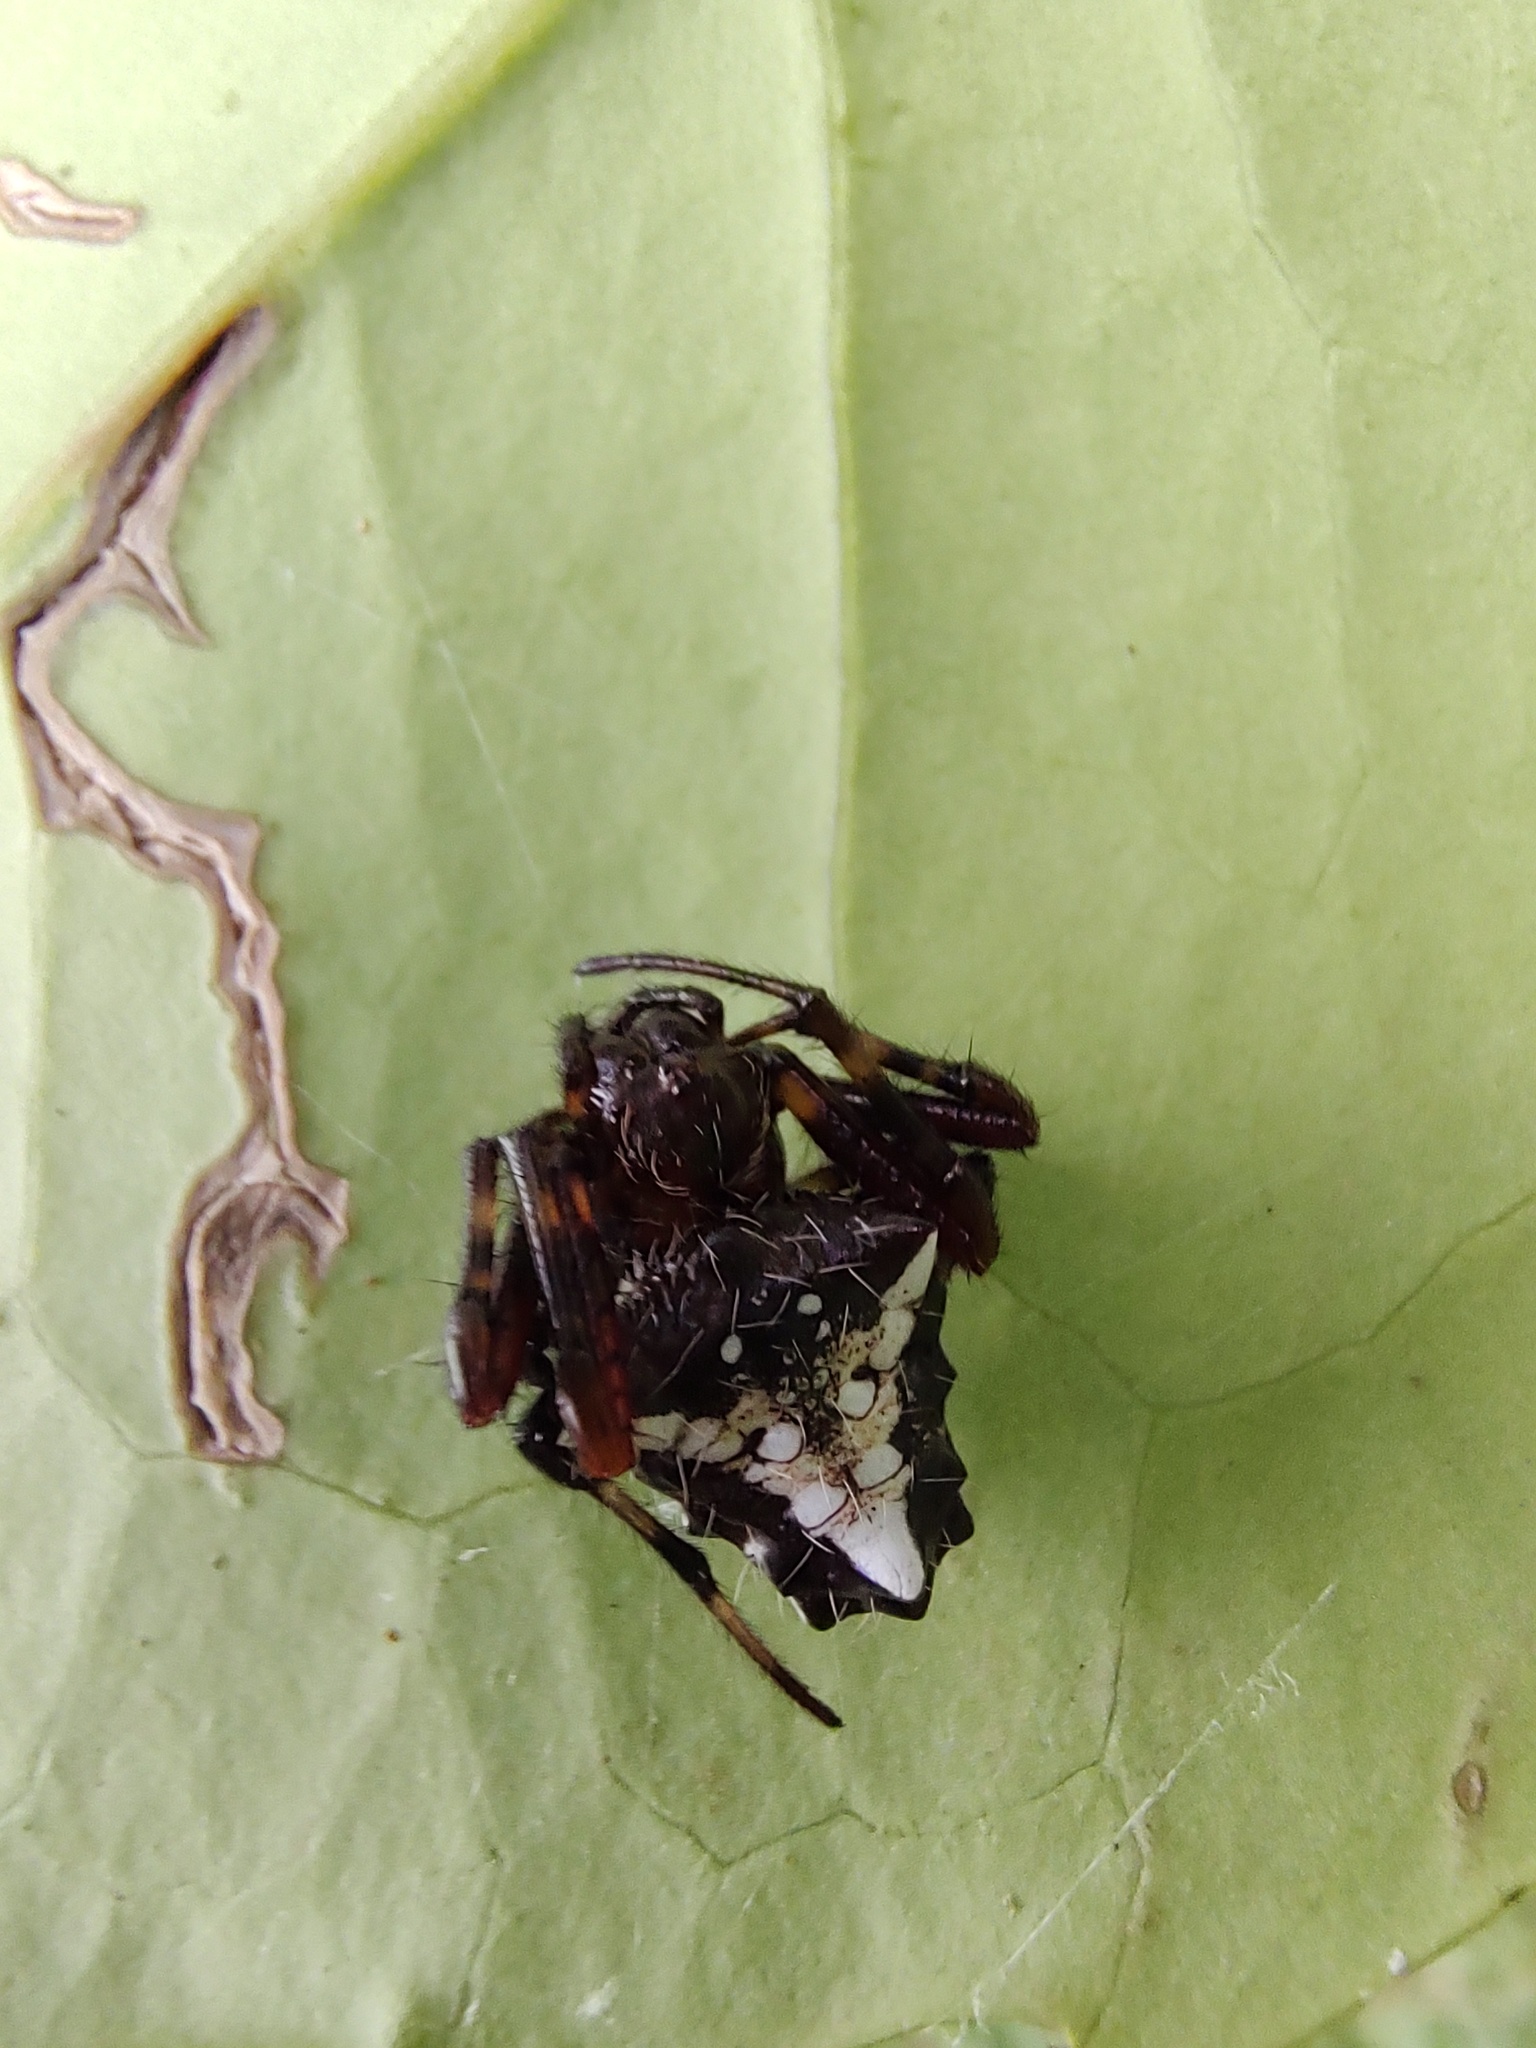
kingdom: Animalia
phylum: Arthropoda
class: Arachnida
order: Araneae
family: Araneidae
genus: Verrucosa
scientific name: Verrucosa meridionalis
